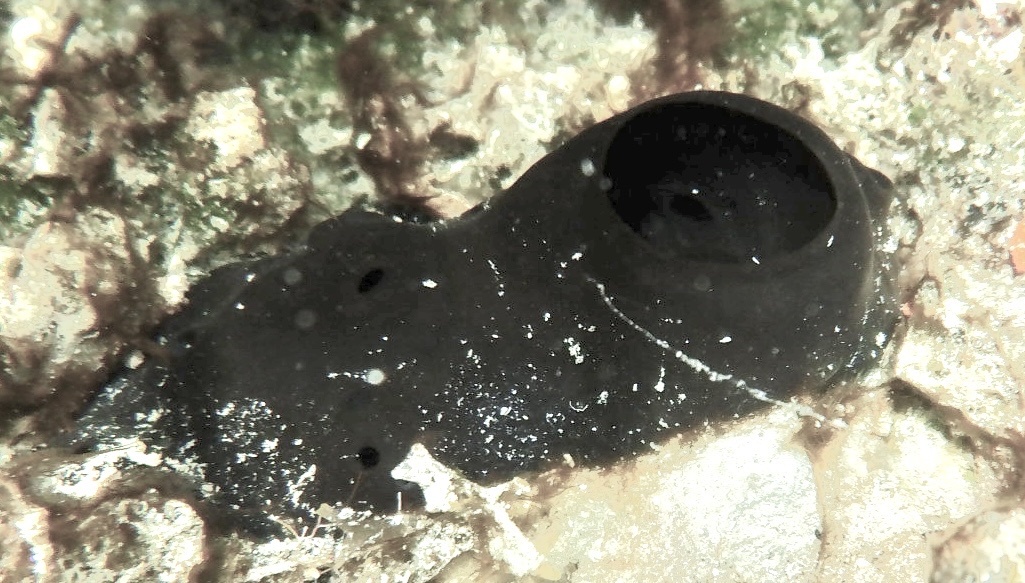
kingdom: Animalia
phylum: Porifera
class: Demospongiae
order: Clionaida
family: Clionaidae
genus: Spheciospongia
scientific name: Spheciospongia vesparium
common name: Manjack
